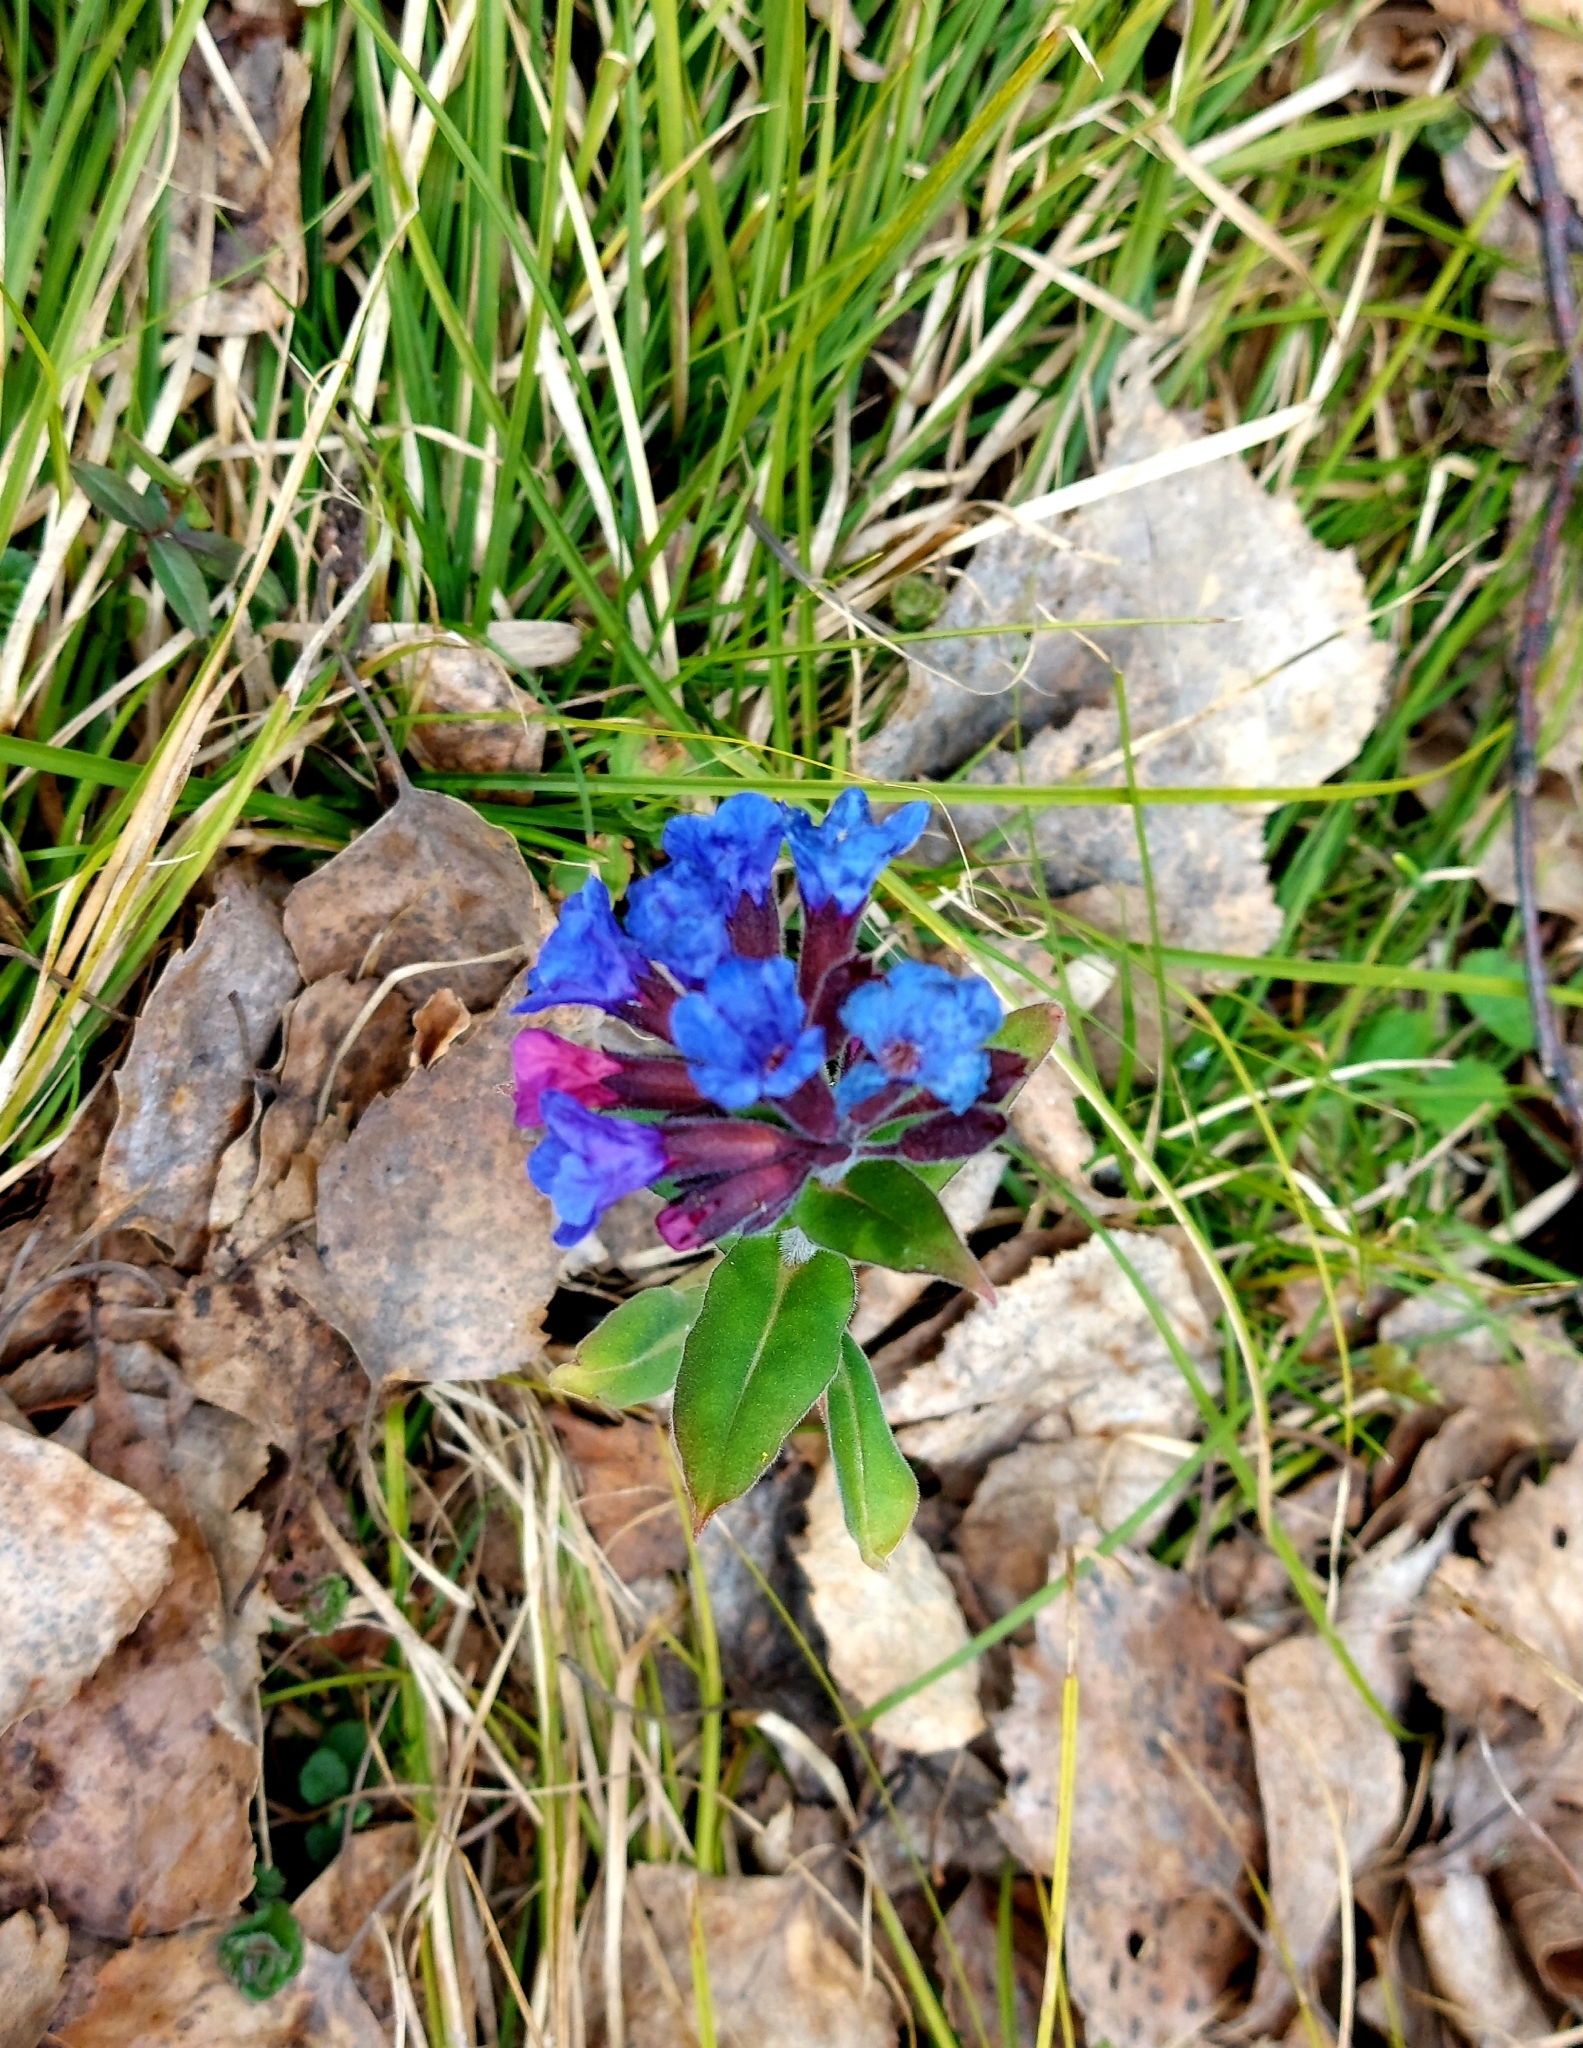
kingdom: Plantae
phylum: Tracheophyta
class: Magnoliopsida
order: Boraginales
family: Boraginaceae
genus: Pulmonaria
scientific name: Pulmonaria mollis
